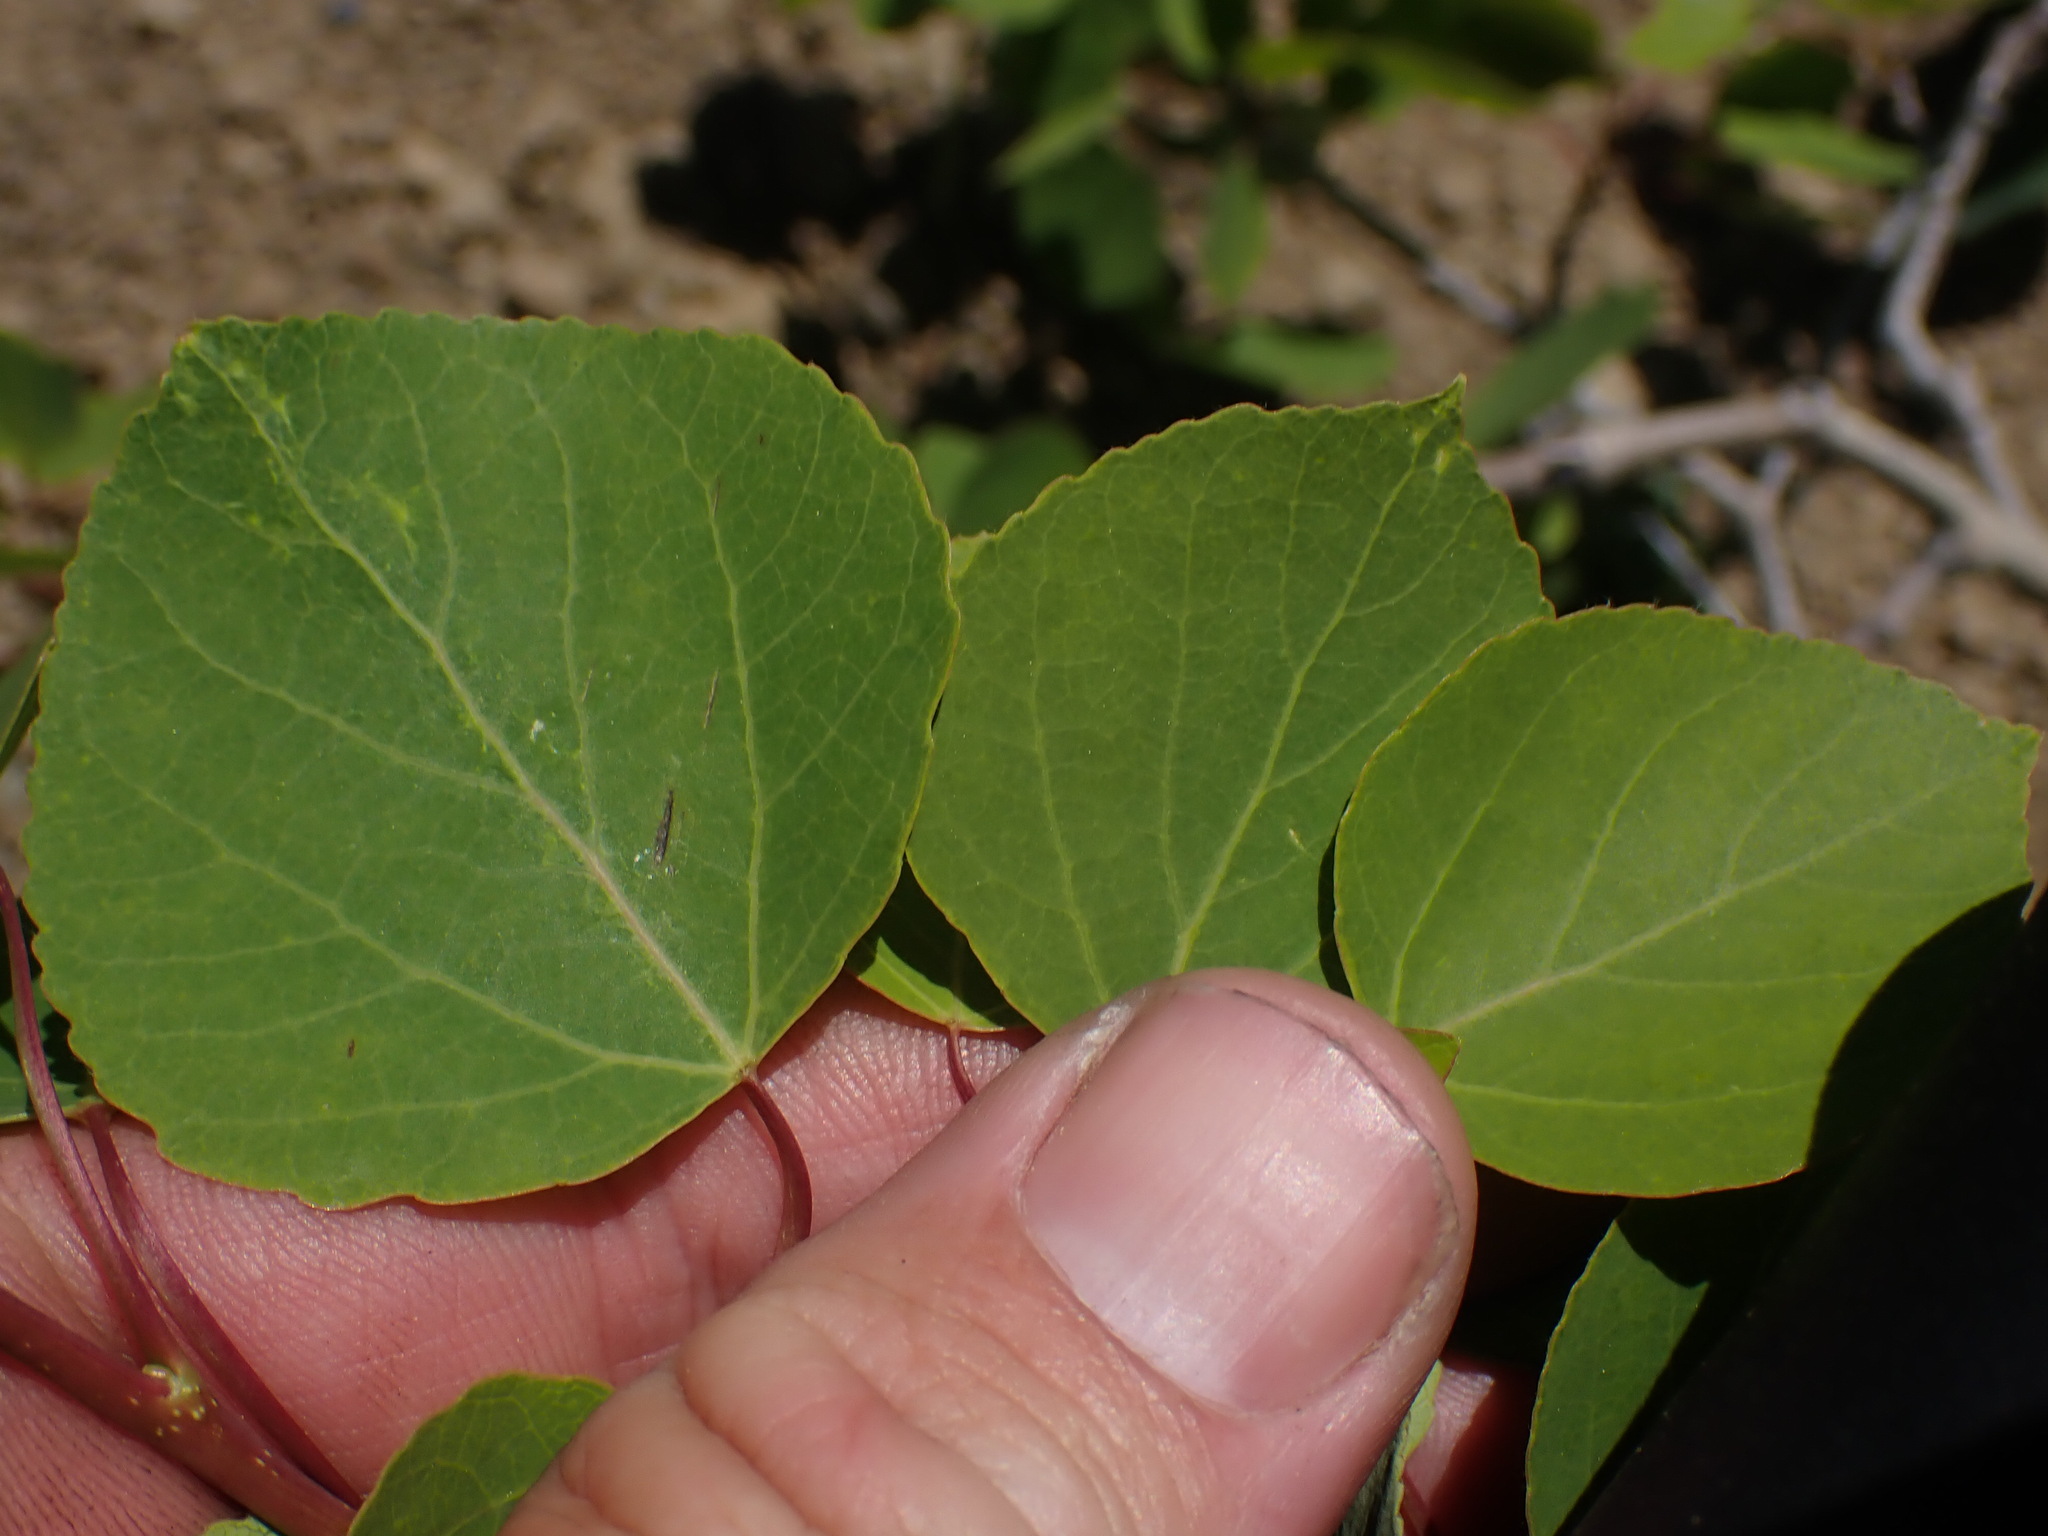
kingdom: Plantae
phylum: Tracheophyta
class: Magnoliopsida
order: Malpighiales
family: Salicaceae
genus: Populus
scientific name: Populus tremuloides
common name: Quaking aspen
